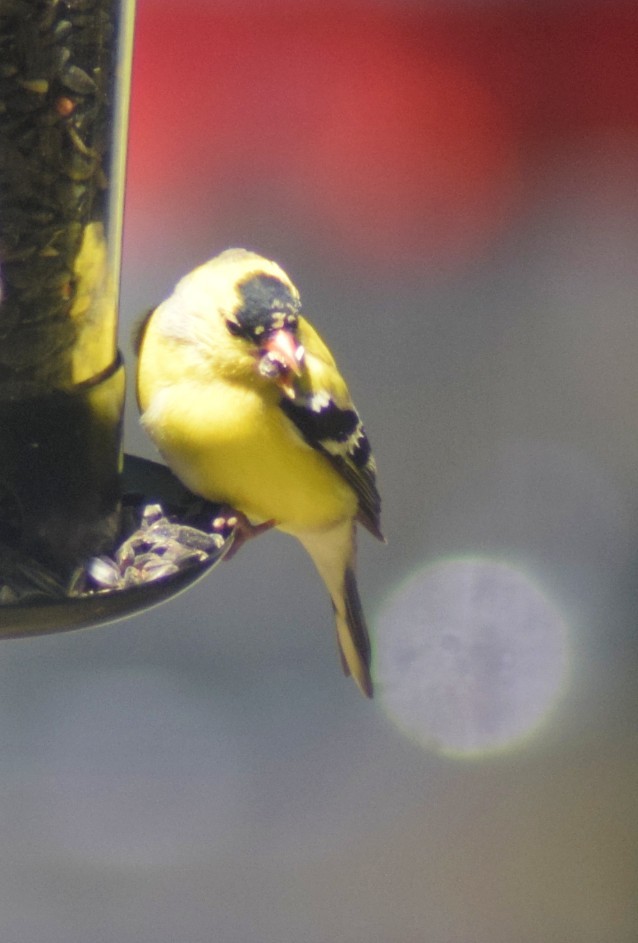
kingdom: Animalia
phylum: Chordata
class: Aves
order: Passeriformes
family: Fringillidae
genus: Spinus
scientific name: Spinus tristis
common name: American goldfinch
